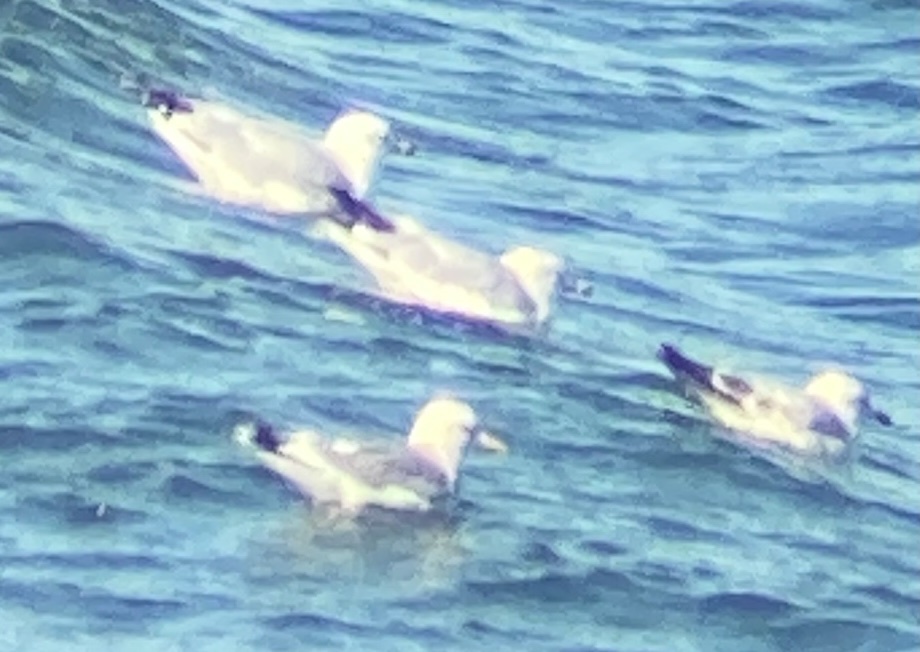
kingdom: Animalia
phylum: Chordata
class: Aves
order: Charadriiformes
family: Laridae
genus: Larus
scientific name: Larus delawarensis
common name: Ring-billed gull
